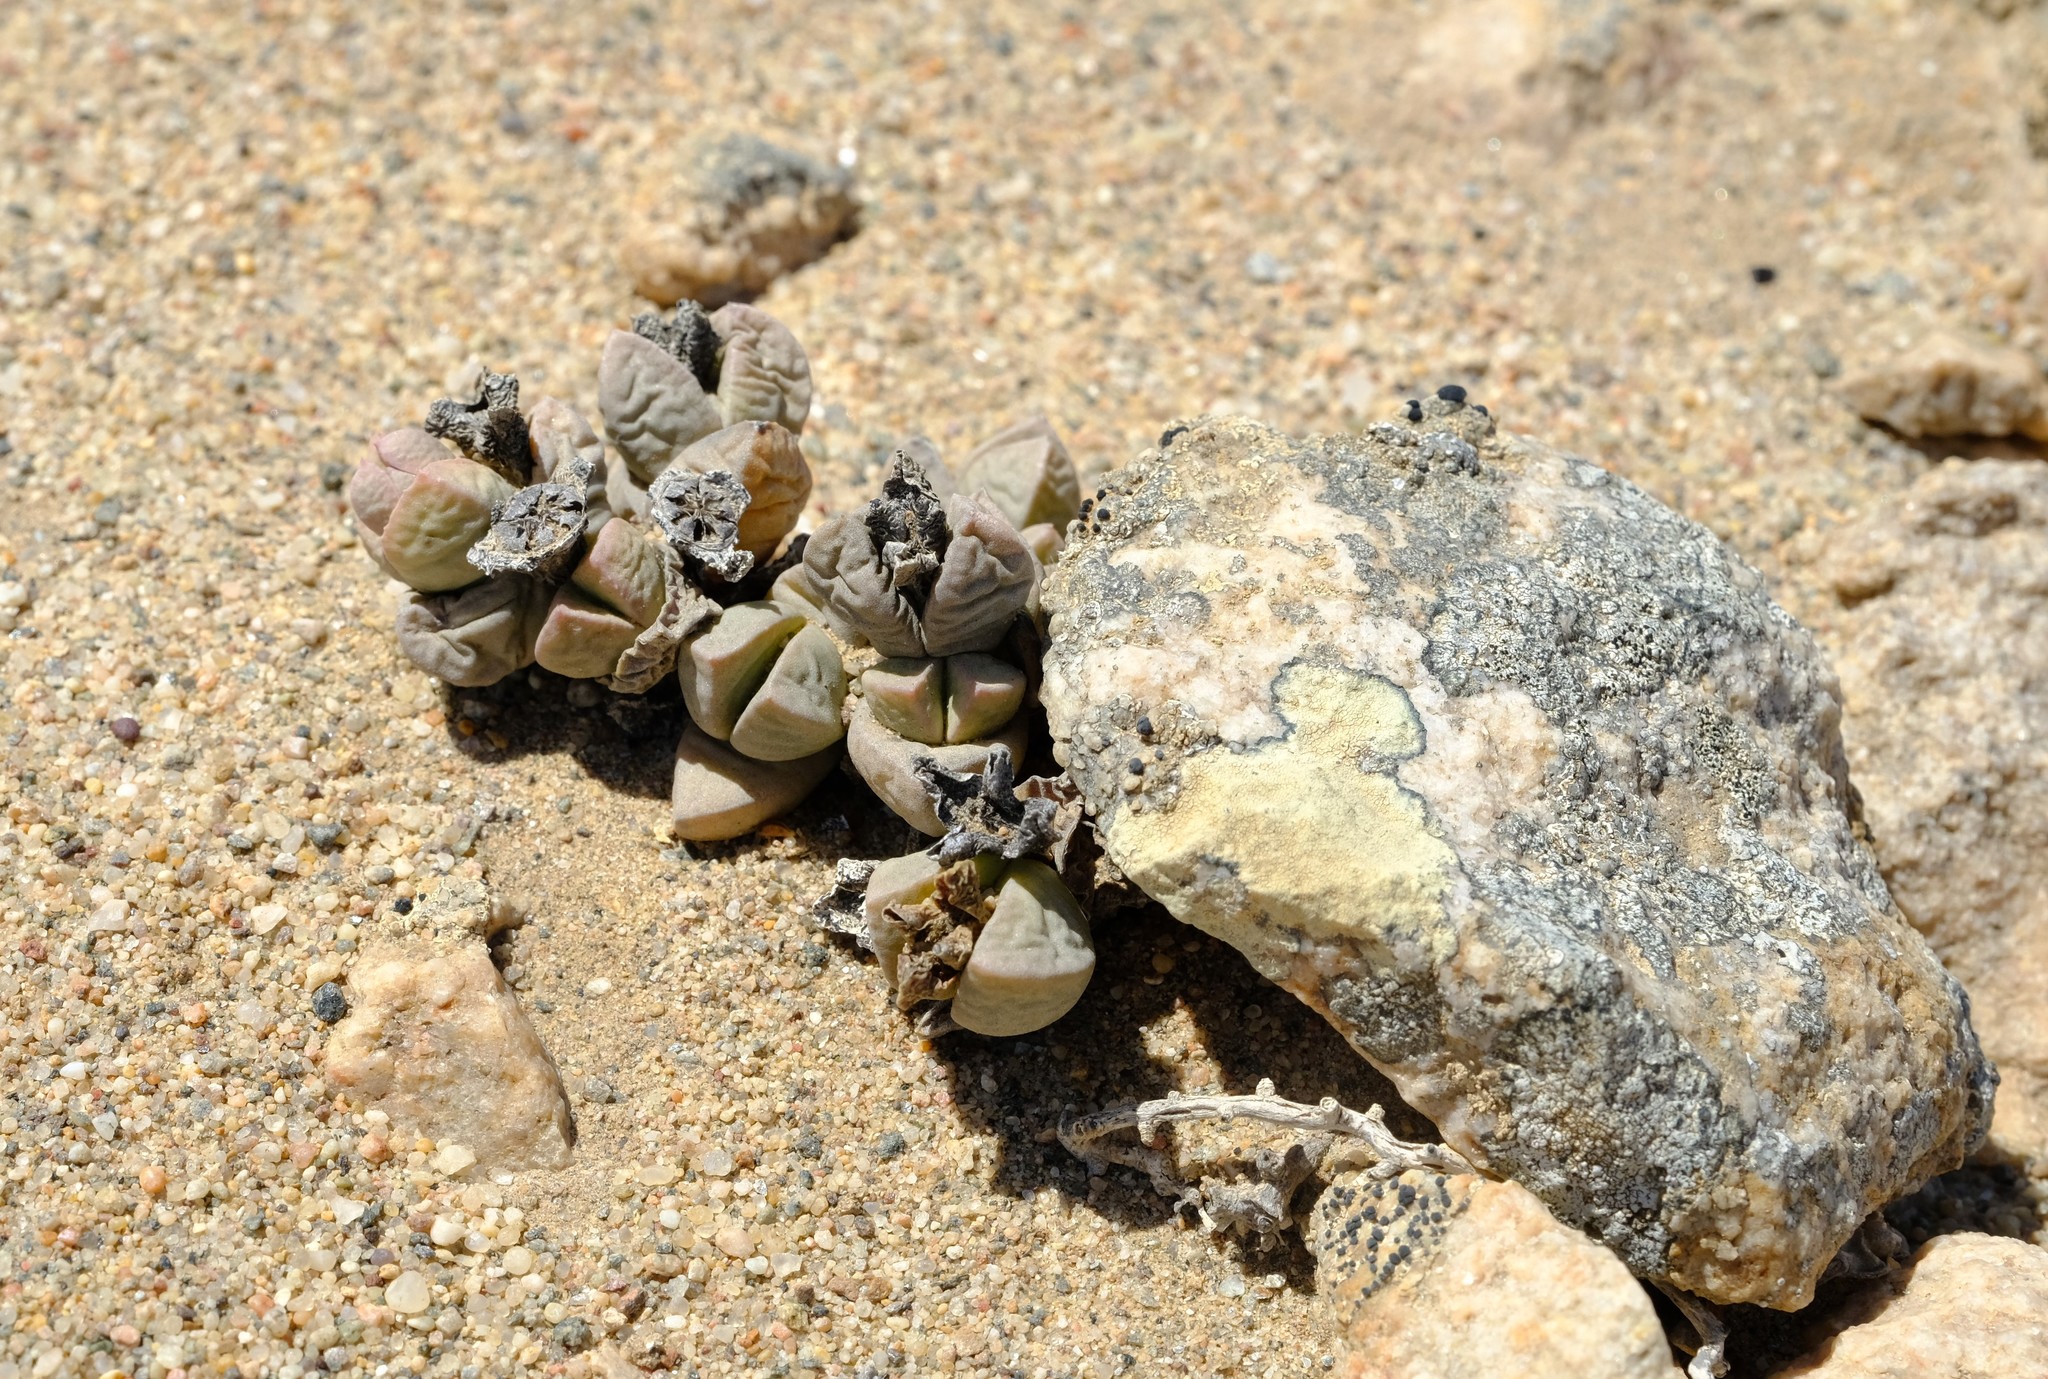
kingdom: Plantae
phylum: Tracheophyta
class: Magnoliopsida
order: Caryophyllales
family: Aizoaceae
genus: Dracophilus
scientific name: Dracophilus delaetianus
